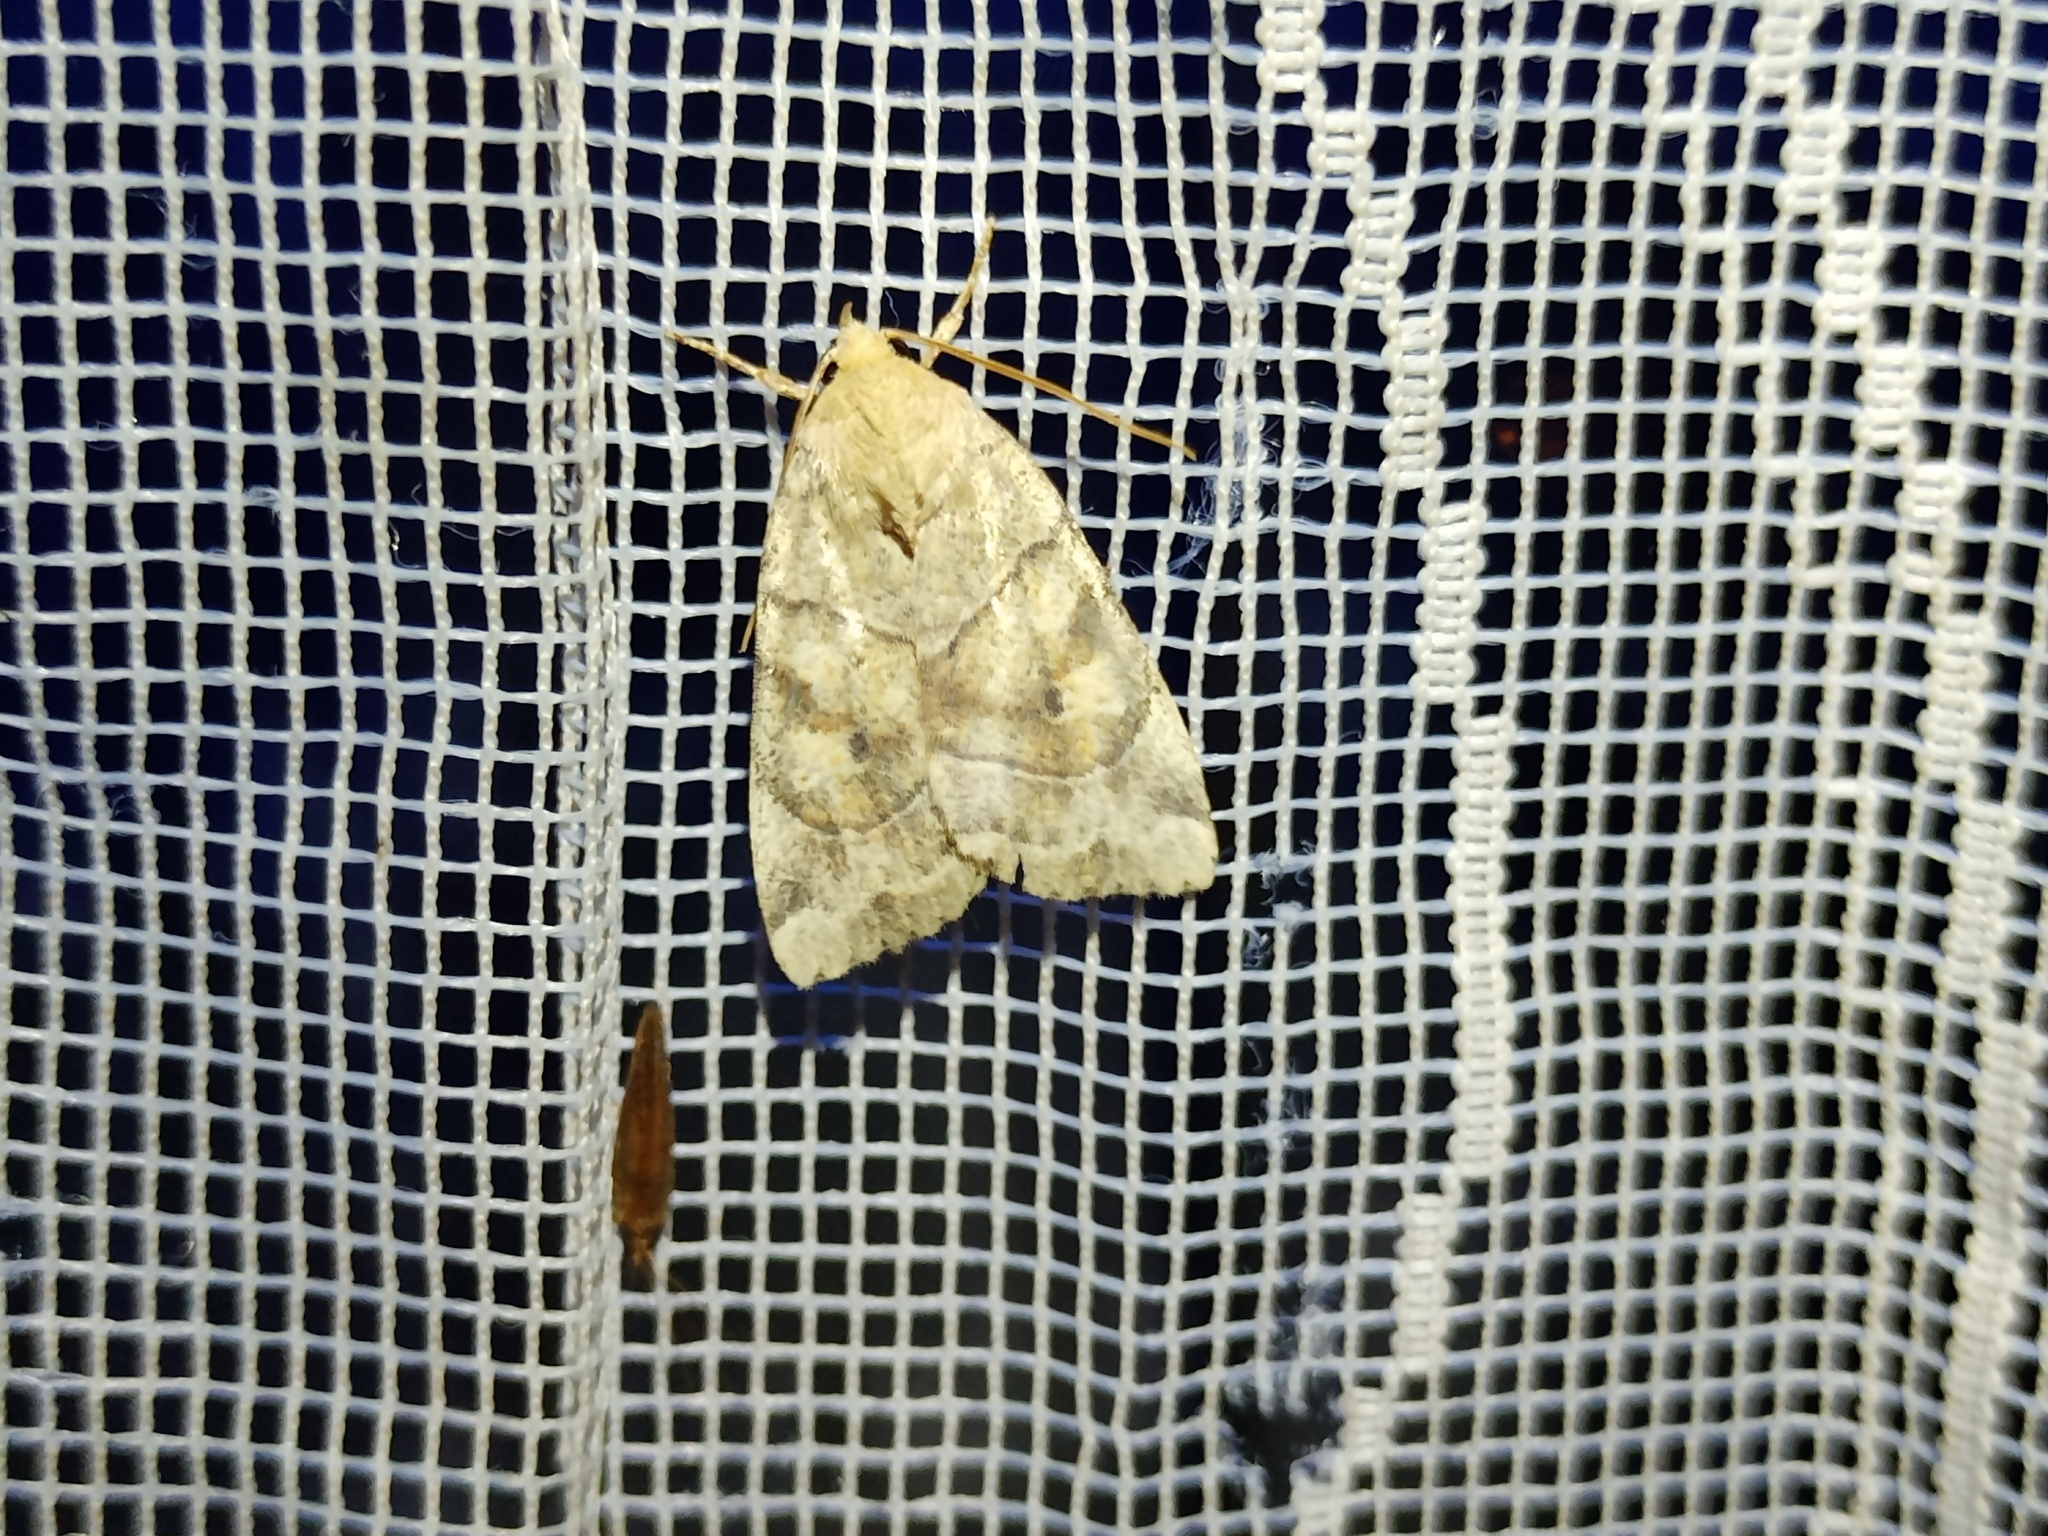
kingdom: Animalia
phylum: Arthropoda
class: Insecta
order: Lepidoptera
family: Noctuidae
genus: Cosmia
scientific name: Cosmia trapezina
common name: Dun-bar
